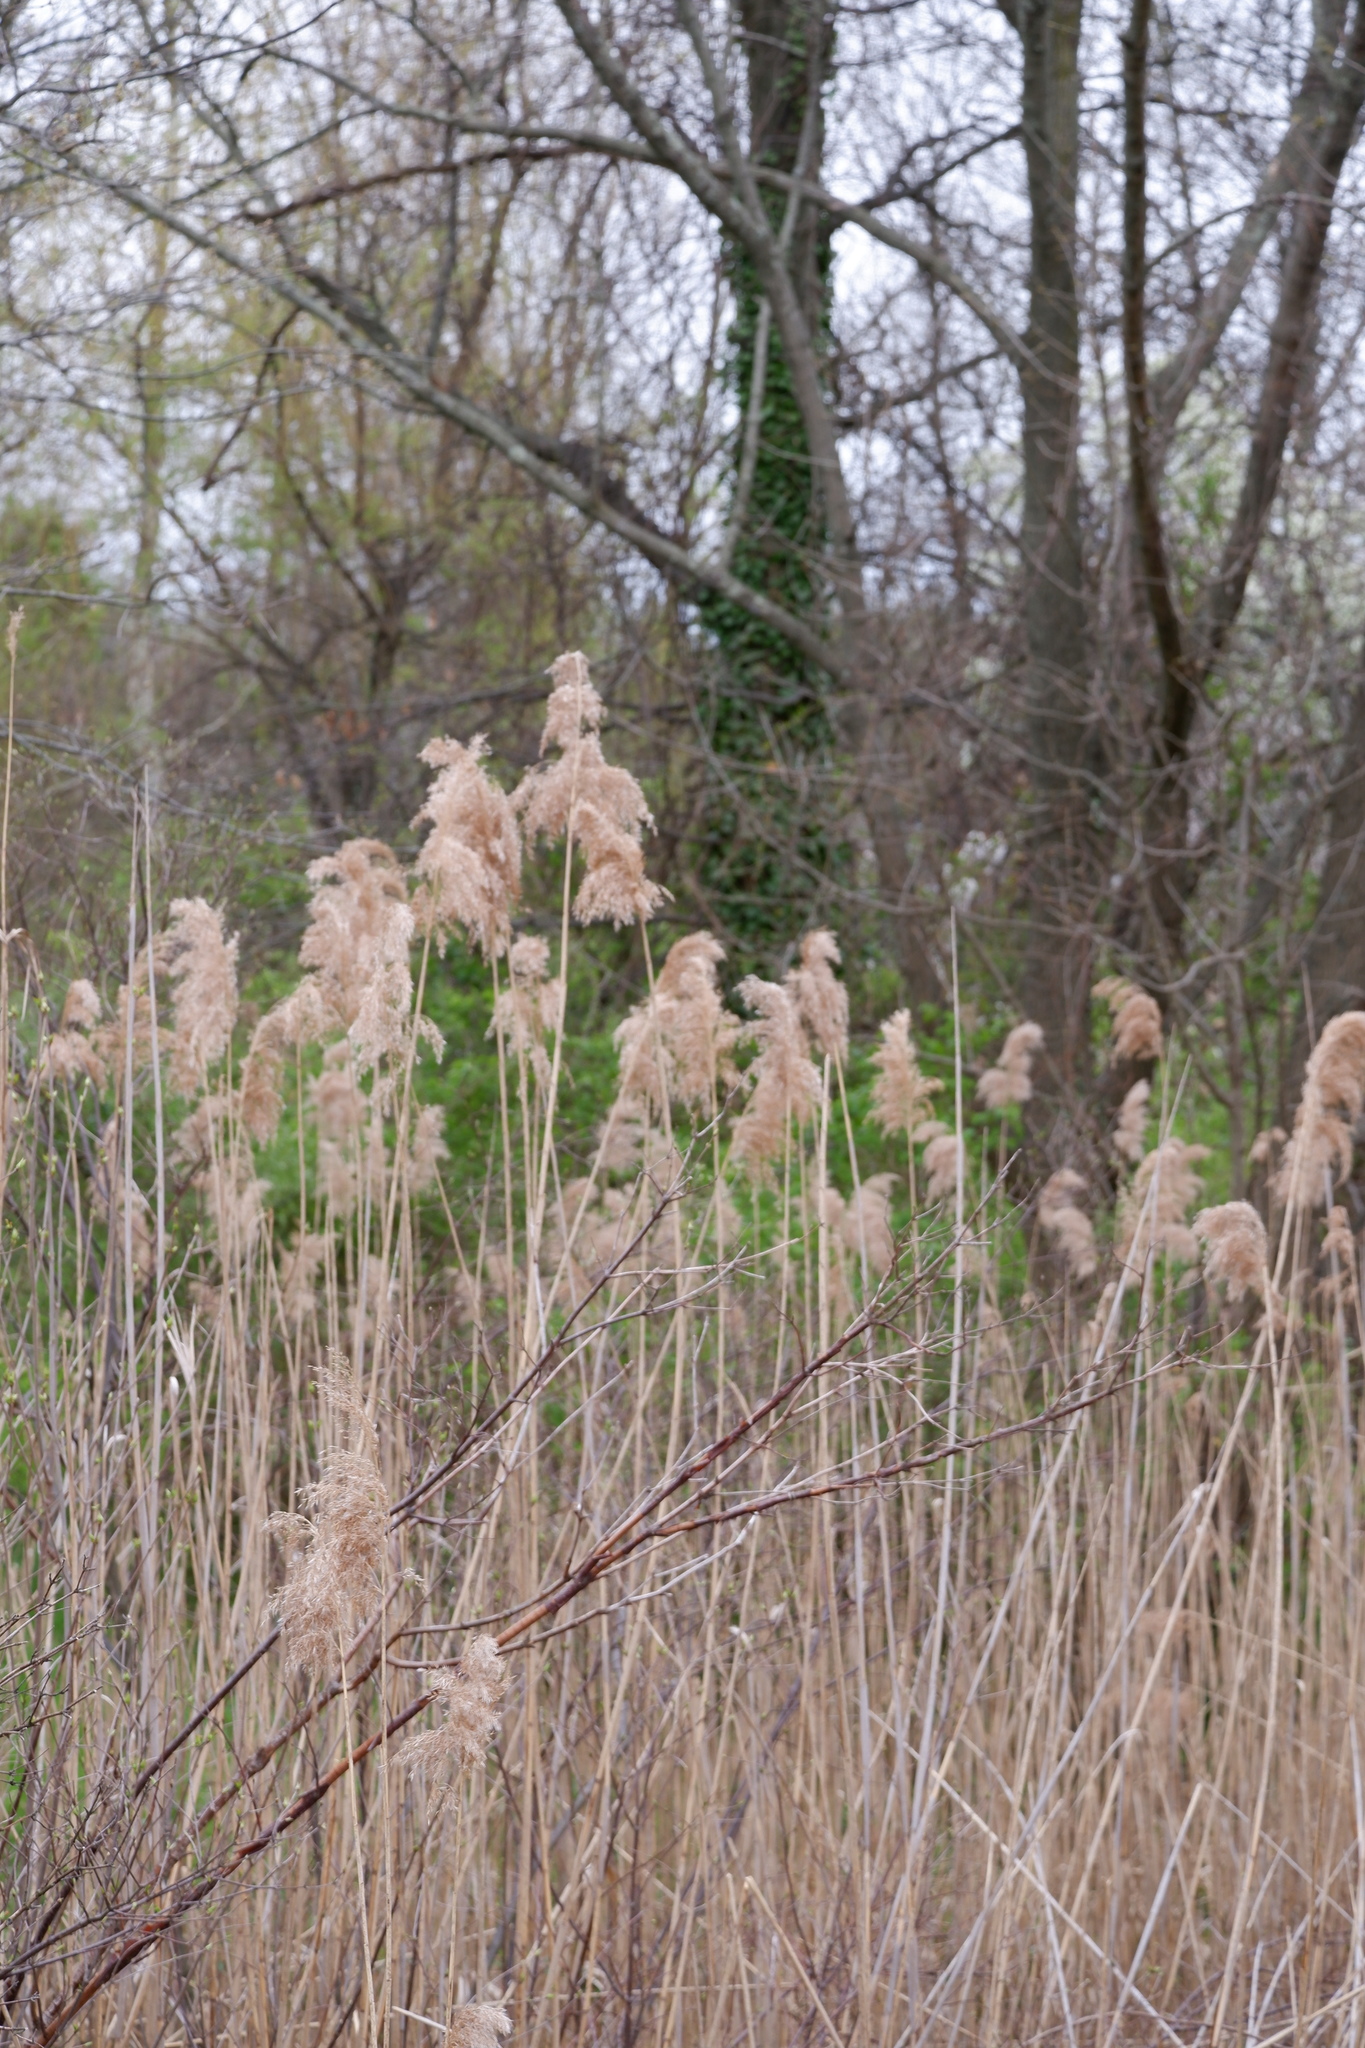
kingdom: Plantae
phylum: Tracheophyta
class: Liliopsida
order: Poales
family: Poaceae
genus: Phragmites
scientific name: Phragmites australis
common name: Common reed
